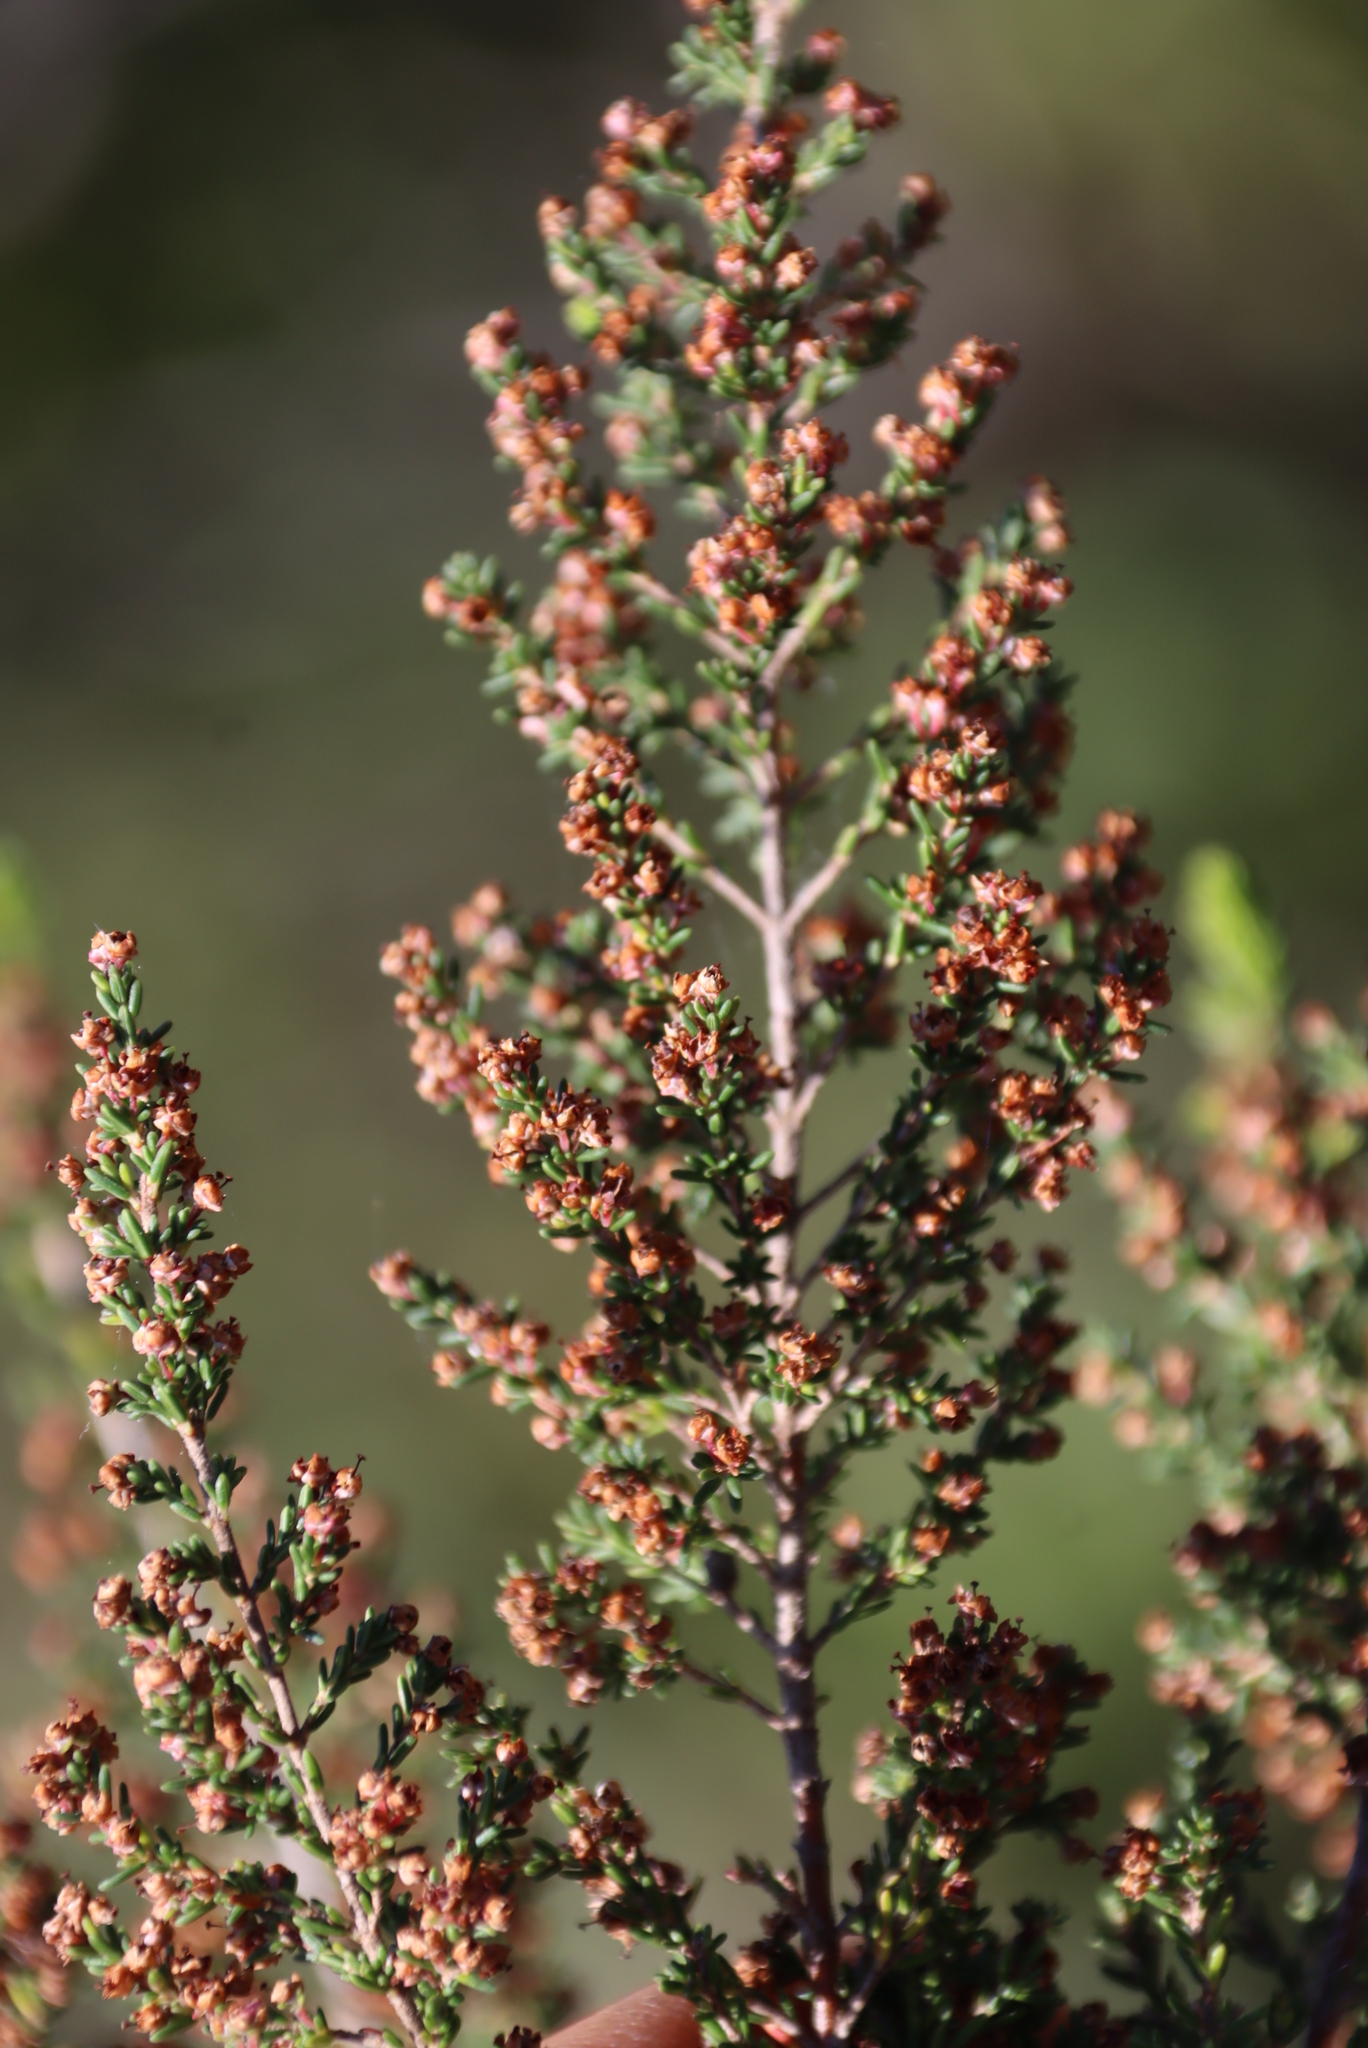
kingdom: Plantae
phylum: Tracheophyta
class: Magnoliopsida
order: Ericales
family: Ericaceae
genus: Erica
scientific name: Erica peltata
